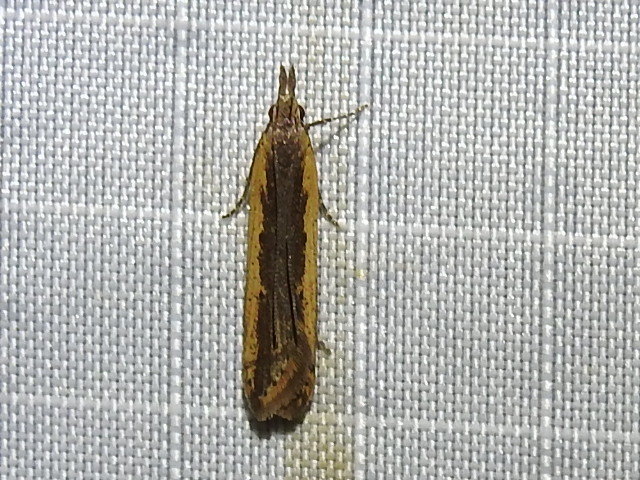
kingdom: Animalia
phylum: Arthropoda
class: Insecta
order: Lepidoptera
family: Gelechiidae
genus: Dichomeris
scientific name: Dichomeris ligulella
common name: Moth
